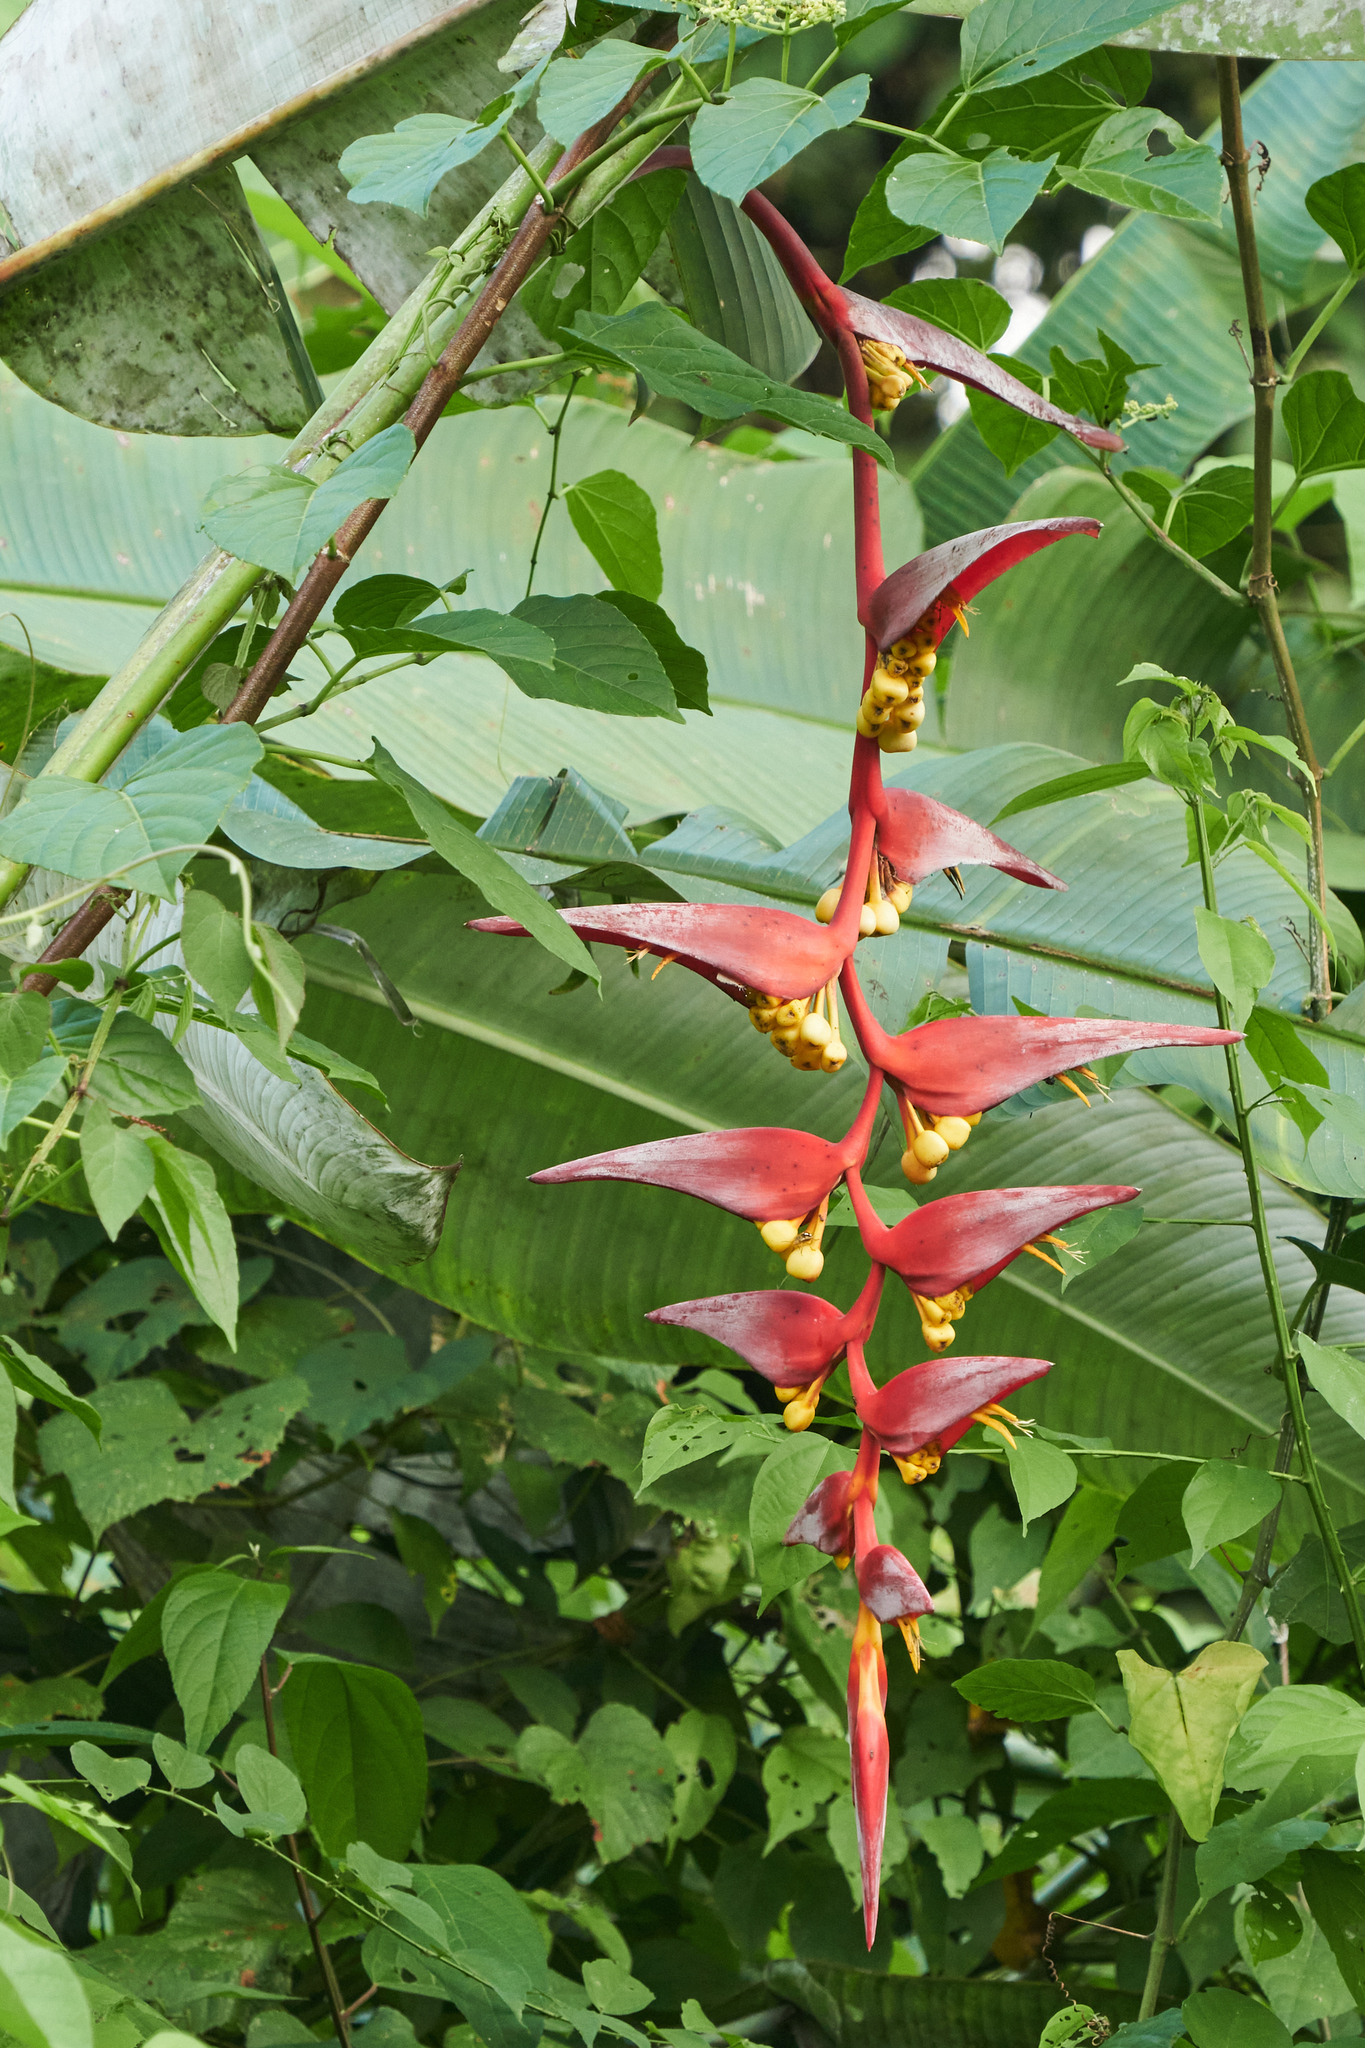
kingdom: Plantae
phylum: Tracheophyta
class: Liliopsida
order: Zingiberales
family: Heliconiaceae
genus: Heliconia
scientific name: Heliconia collinsiana
